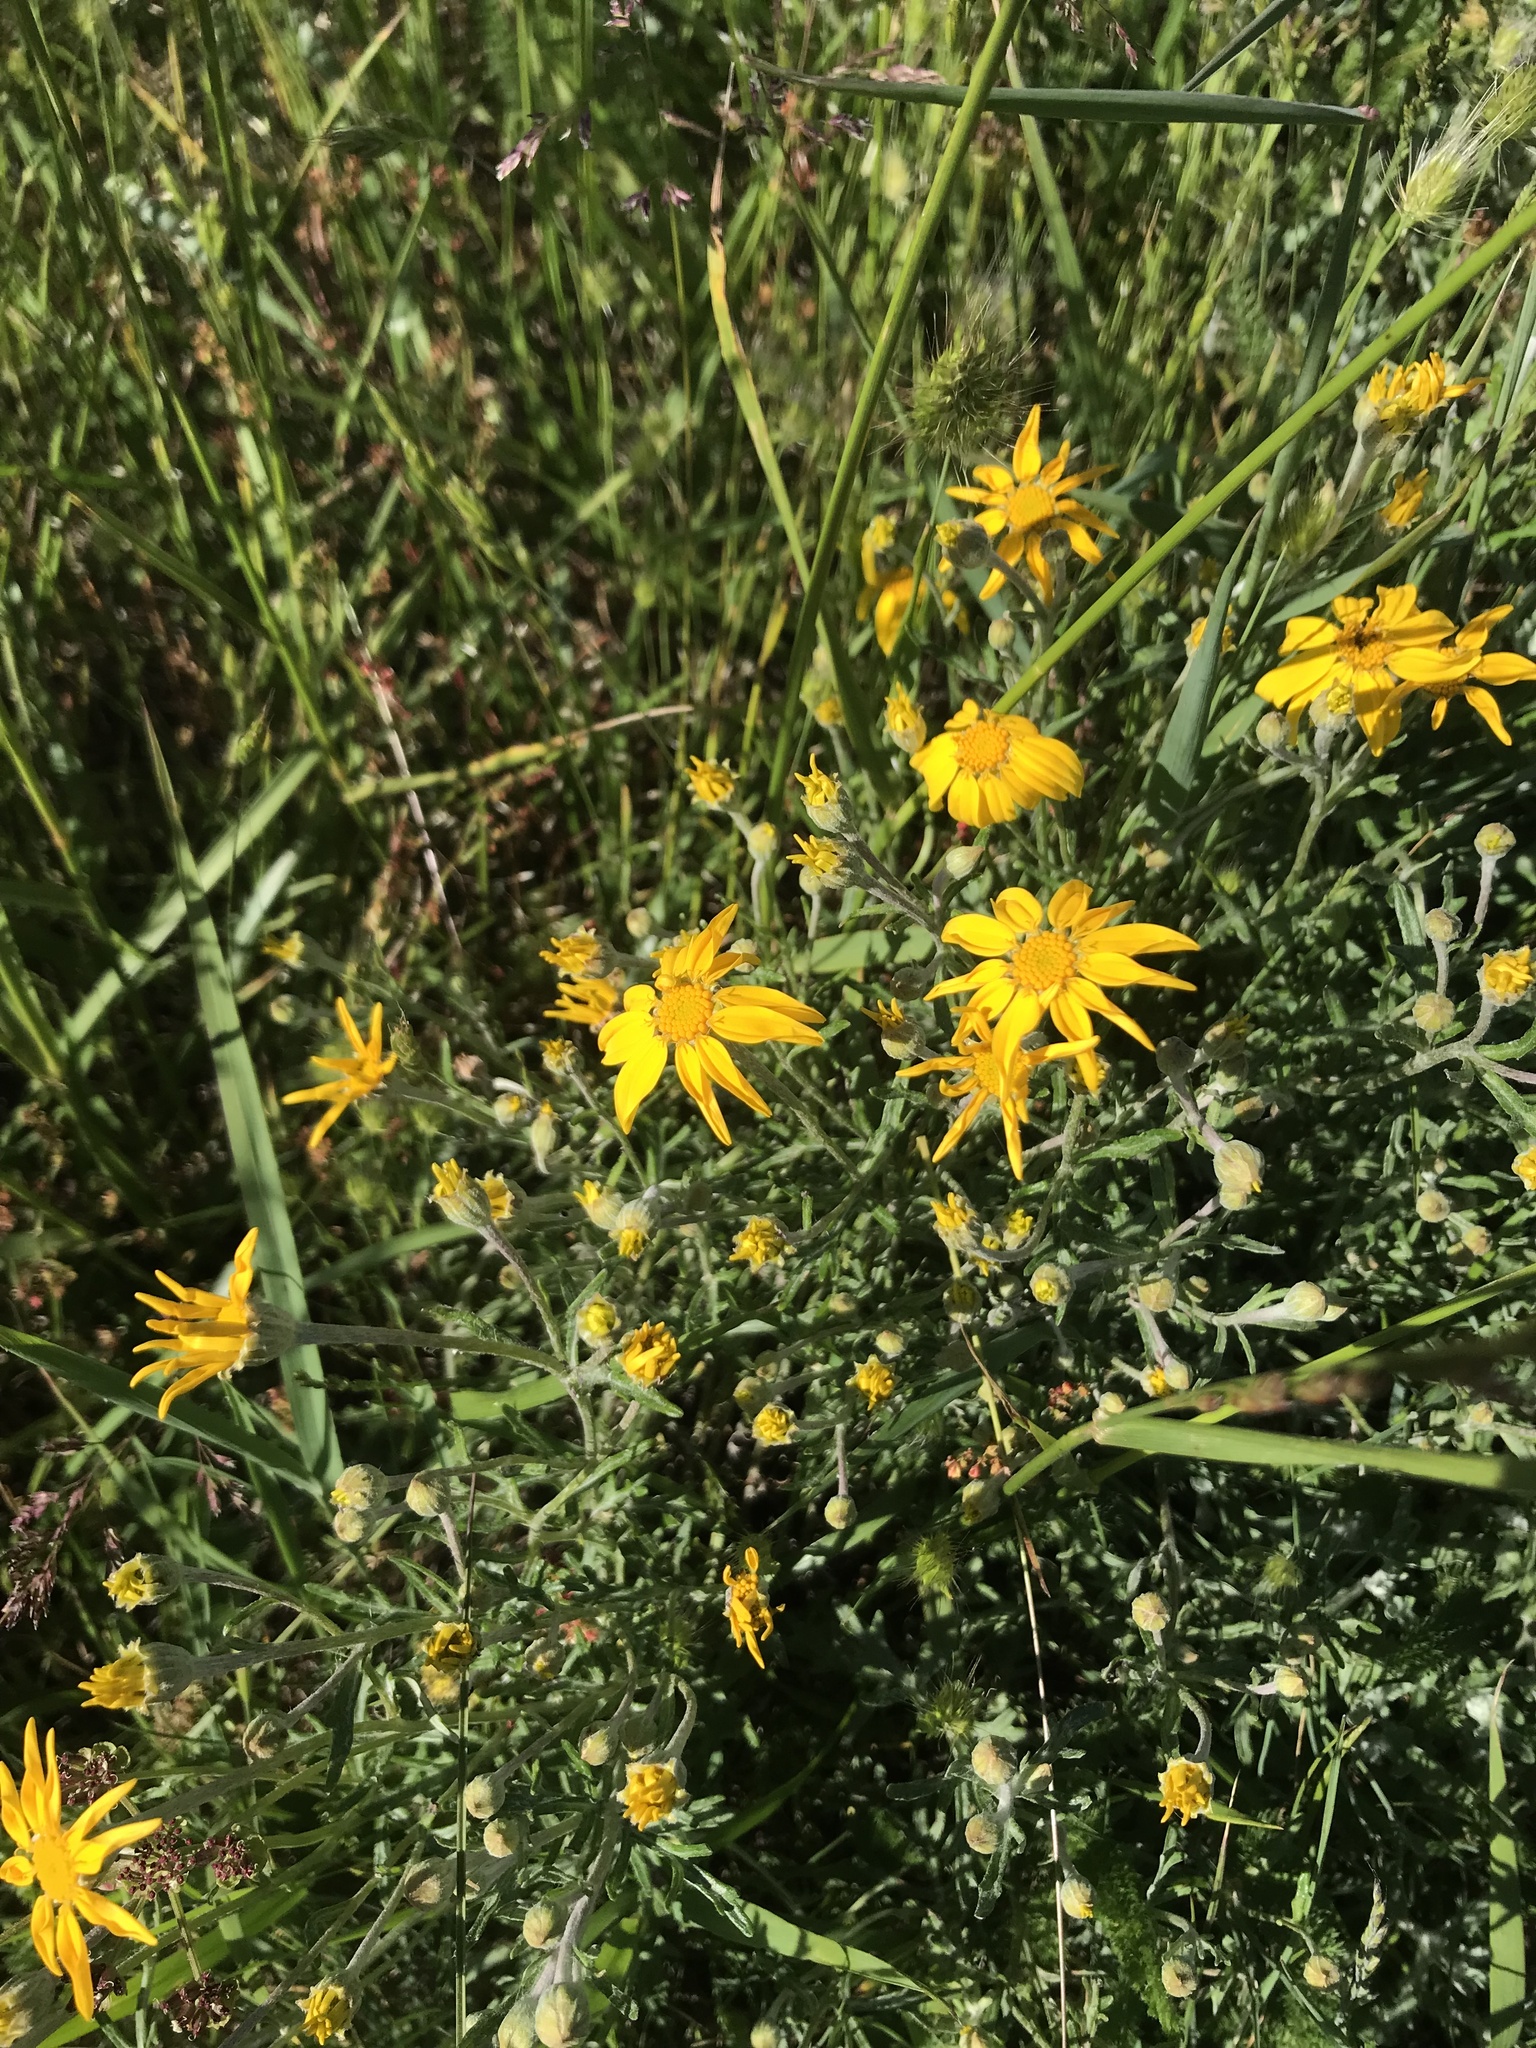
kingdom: Plantae
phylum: Tracheophyta
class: Magnoliopsida
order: Asterales
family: Asteraceae
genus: Eriophyllum
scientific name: Eriophyllum lanatum
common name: Common woolly-sunflower
